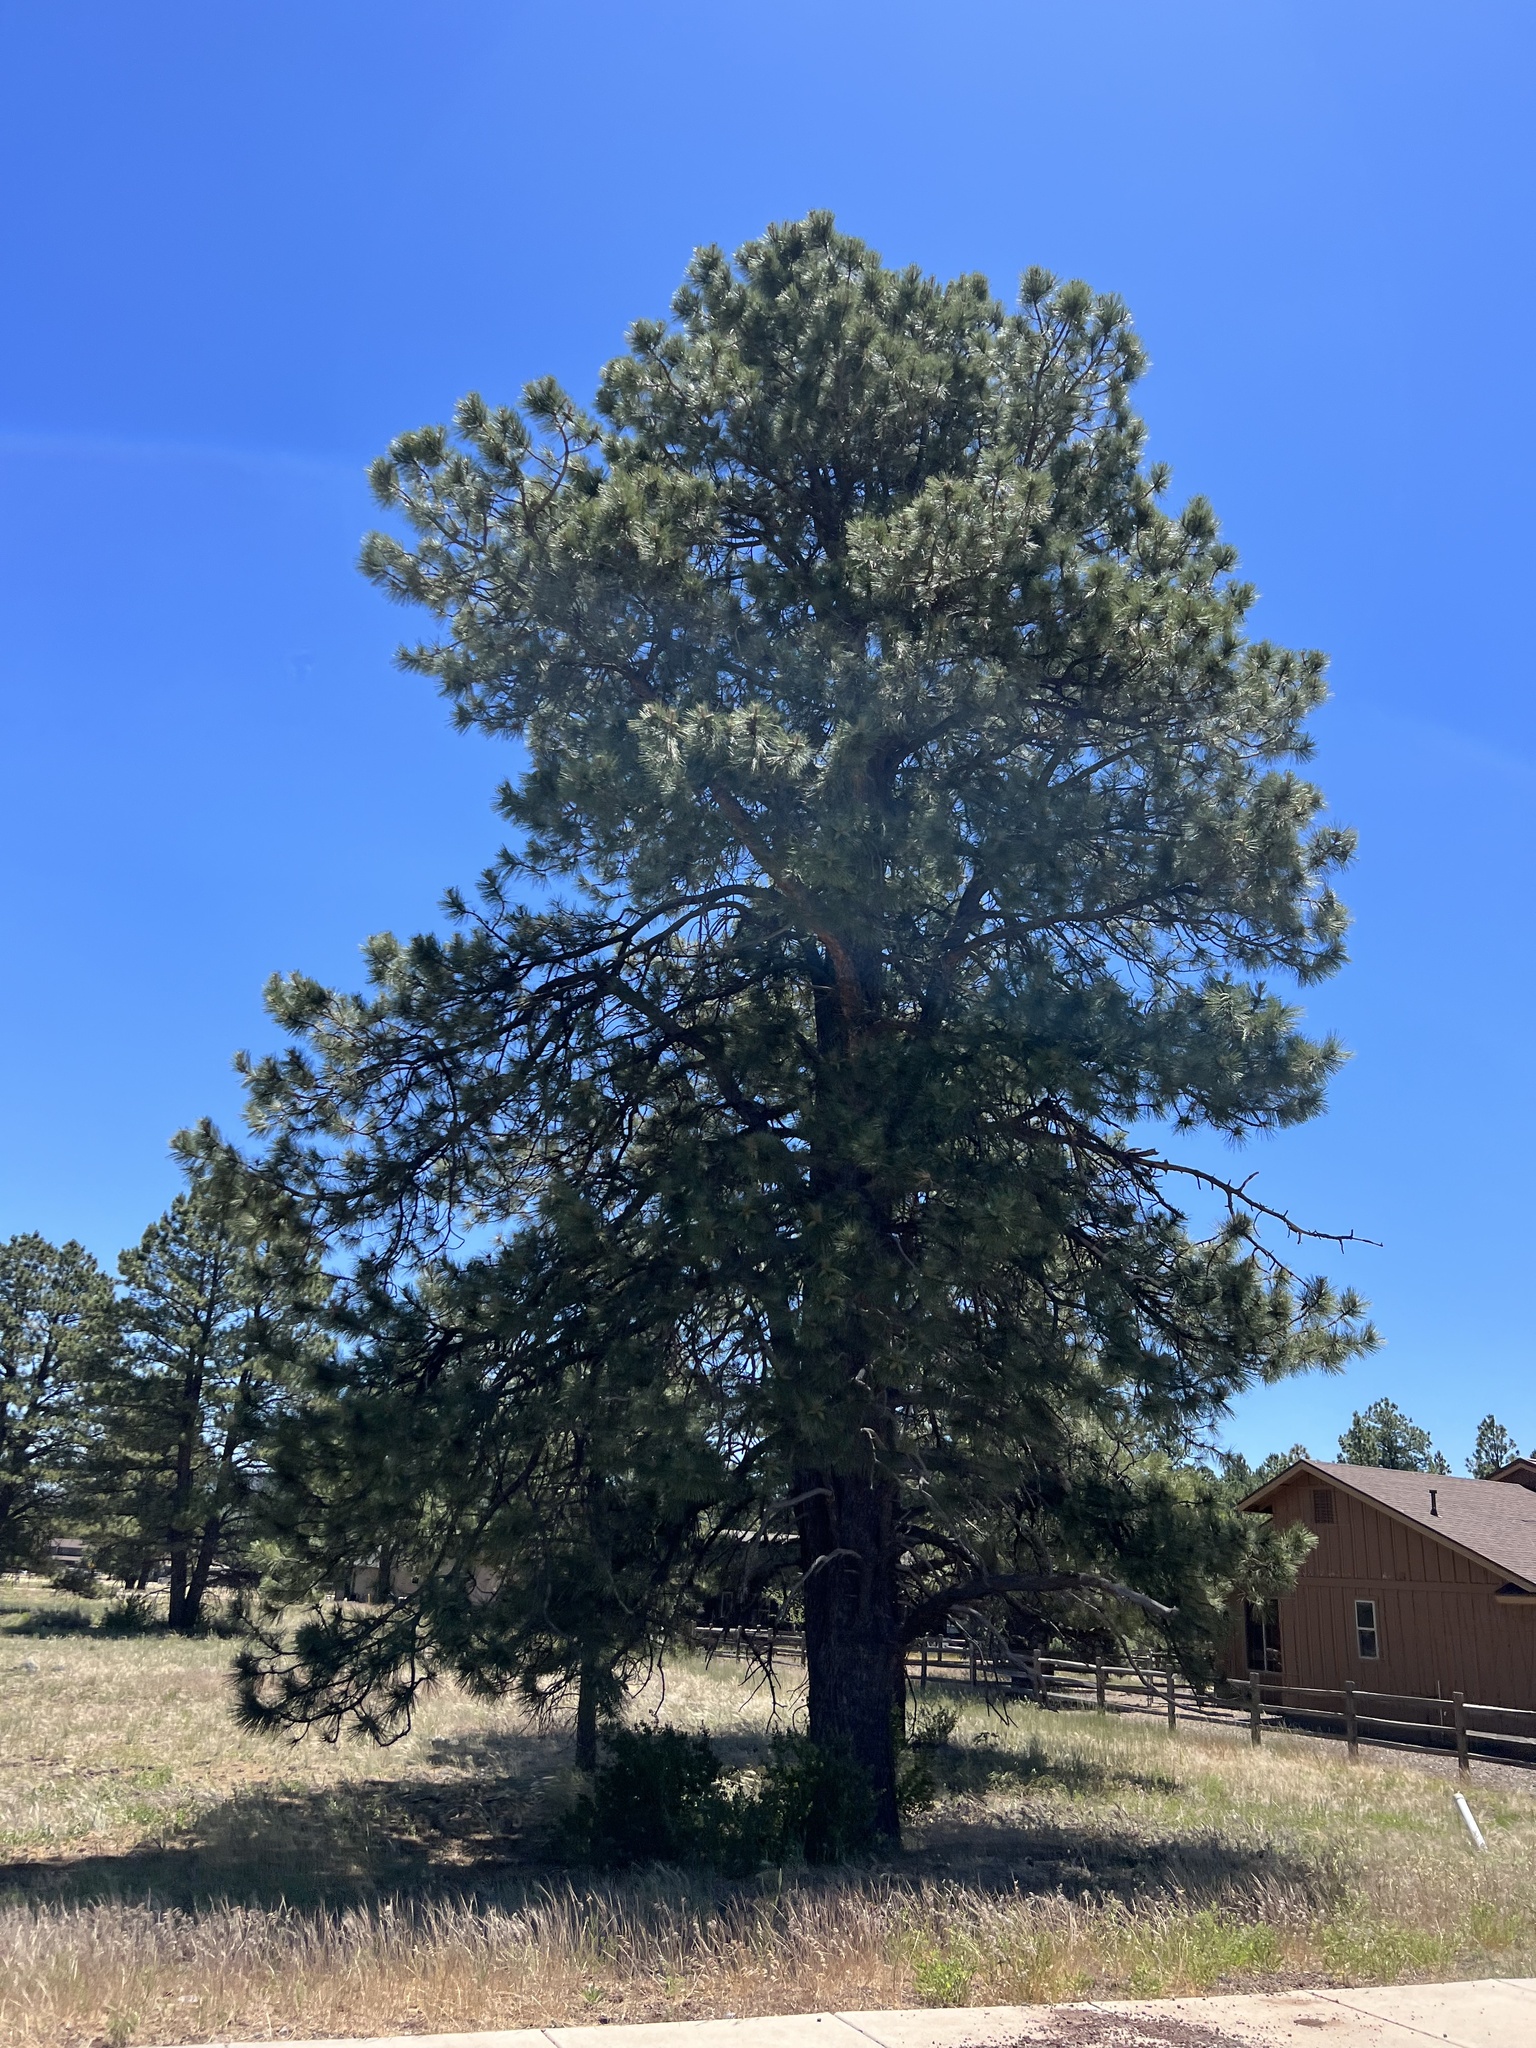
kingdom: Plantae
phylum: Tracheophyta
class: Pinopsida
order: Pinales
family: Pinaceae
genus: Pinus
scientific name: Pinus ponderosa
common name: Western yellow-pine
